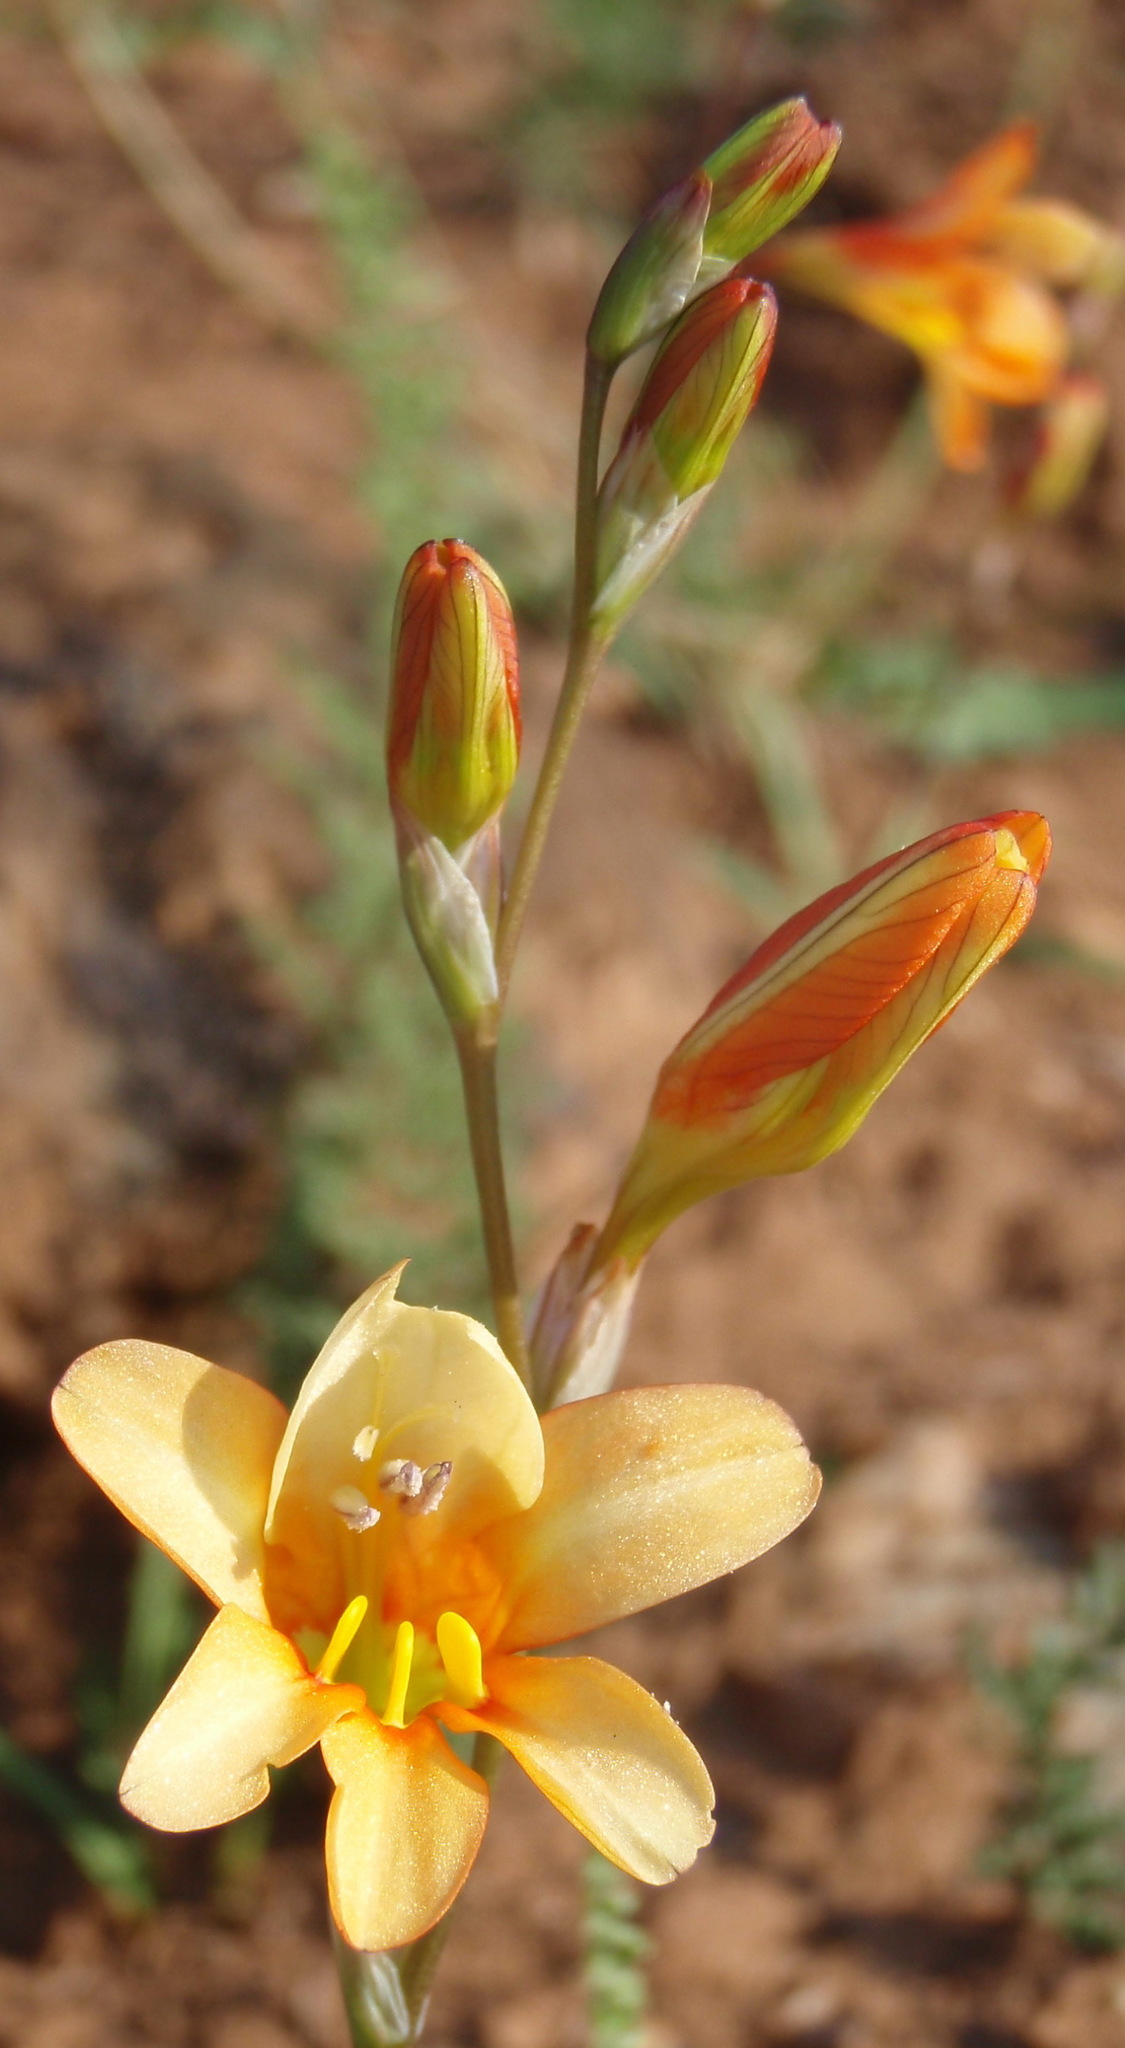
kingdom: Plantae
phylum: Tracheophyta
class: Liliopsida
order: Asparagales
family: Iridaceae
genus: Tritonia
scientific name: Tritonia securigera
